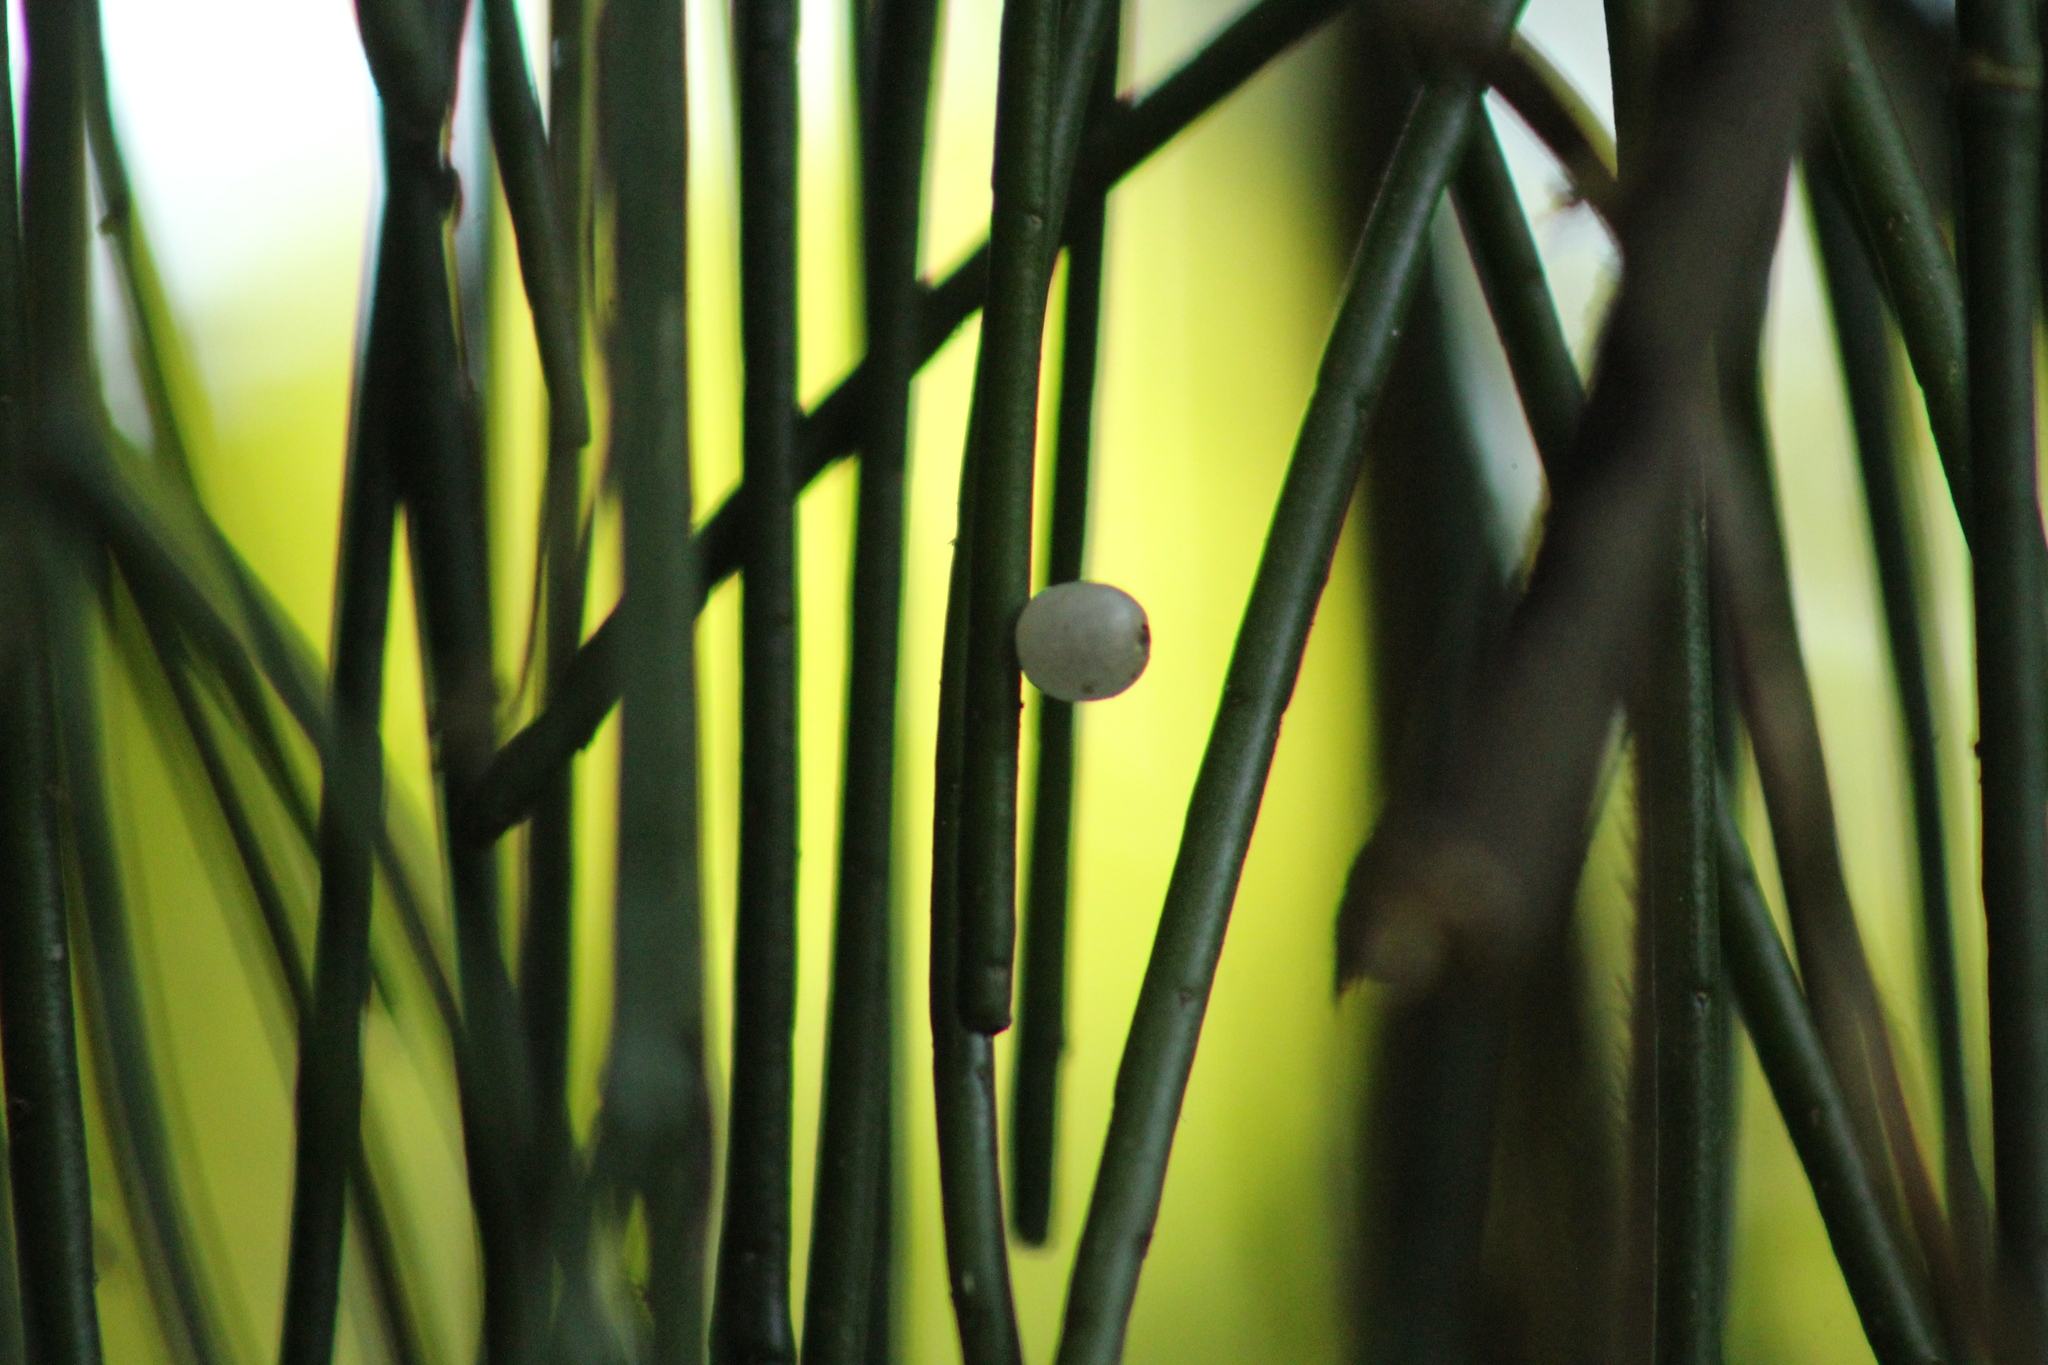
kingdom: Plantae
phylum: Tracheophyta
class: Magnoliopsida
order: Caryophyllales
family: Cactaceae
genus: Rhipsalis
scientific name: Rhipsalis baccifera
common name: Mistletoe cactus
